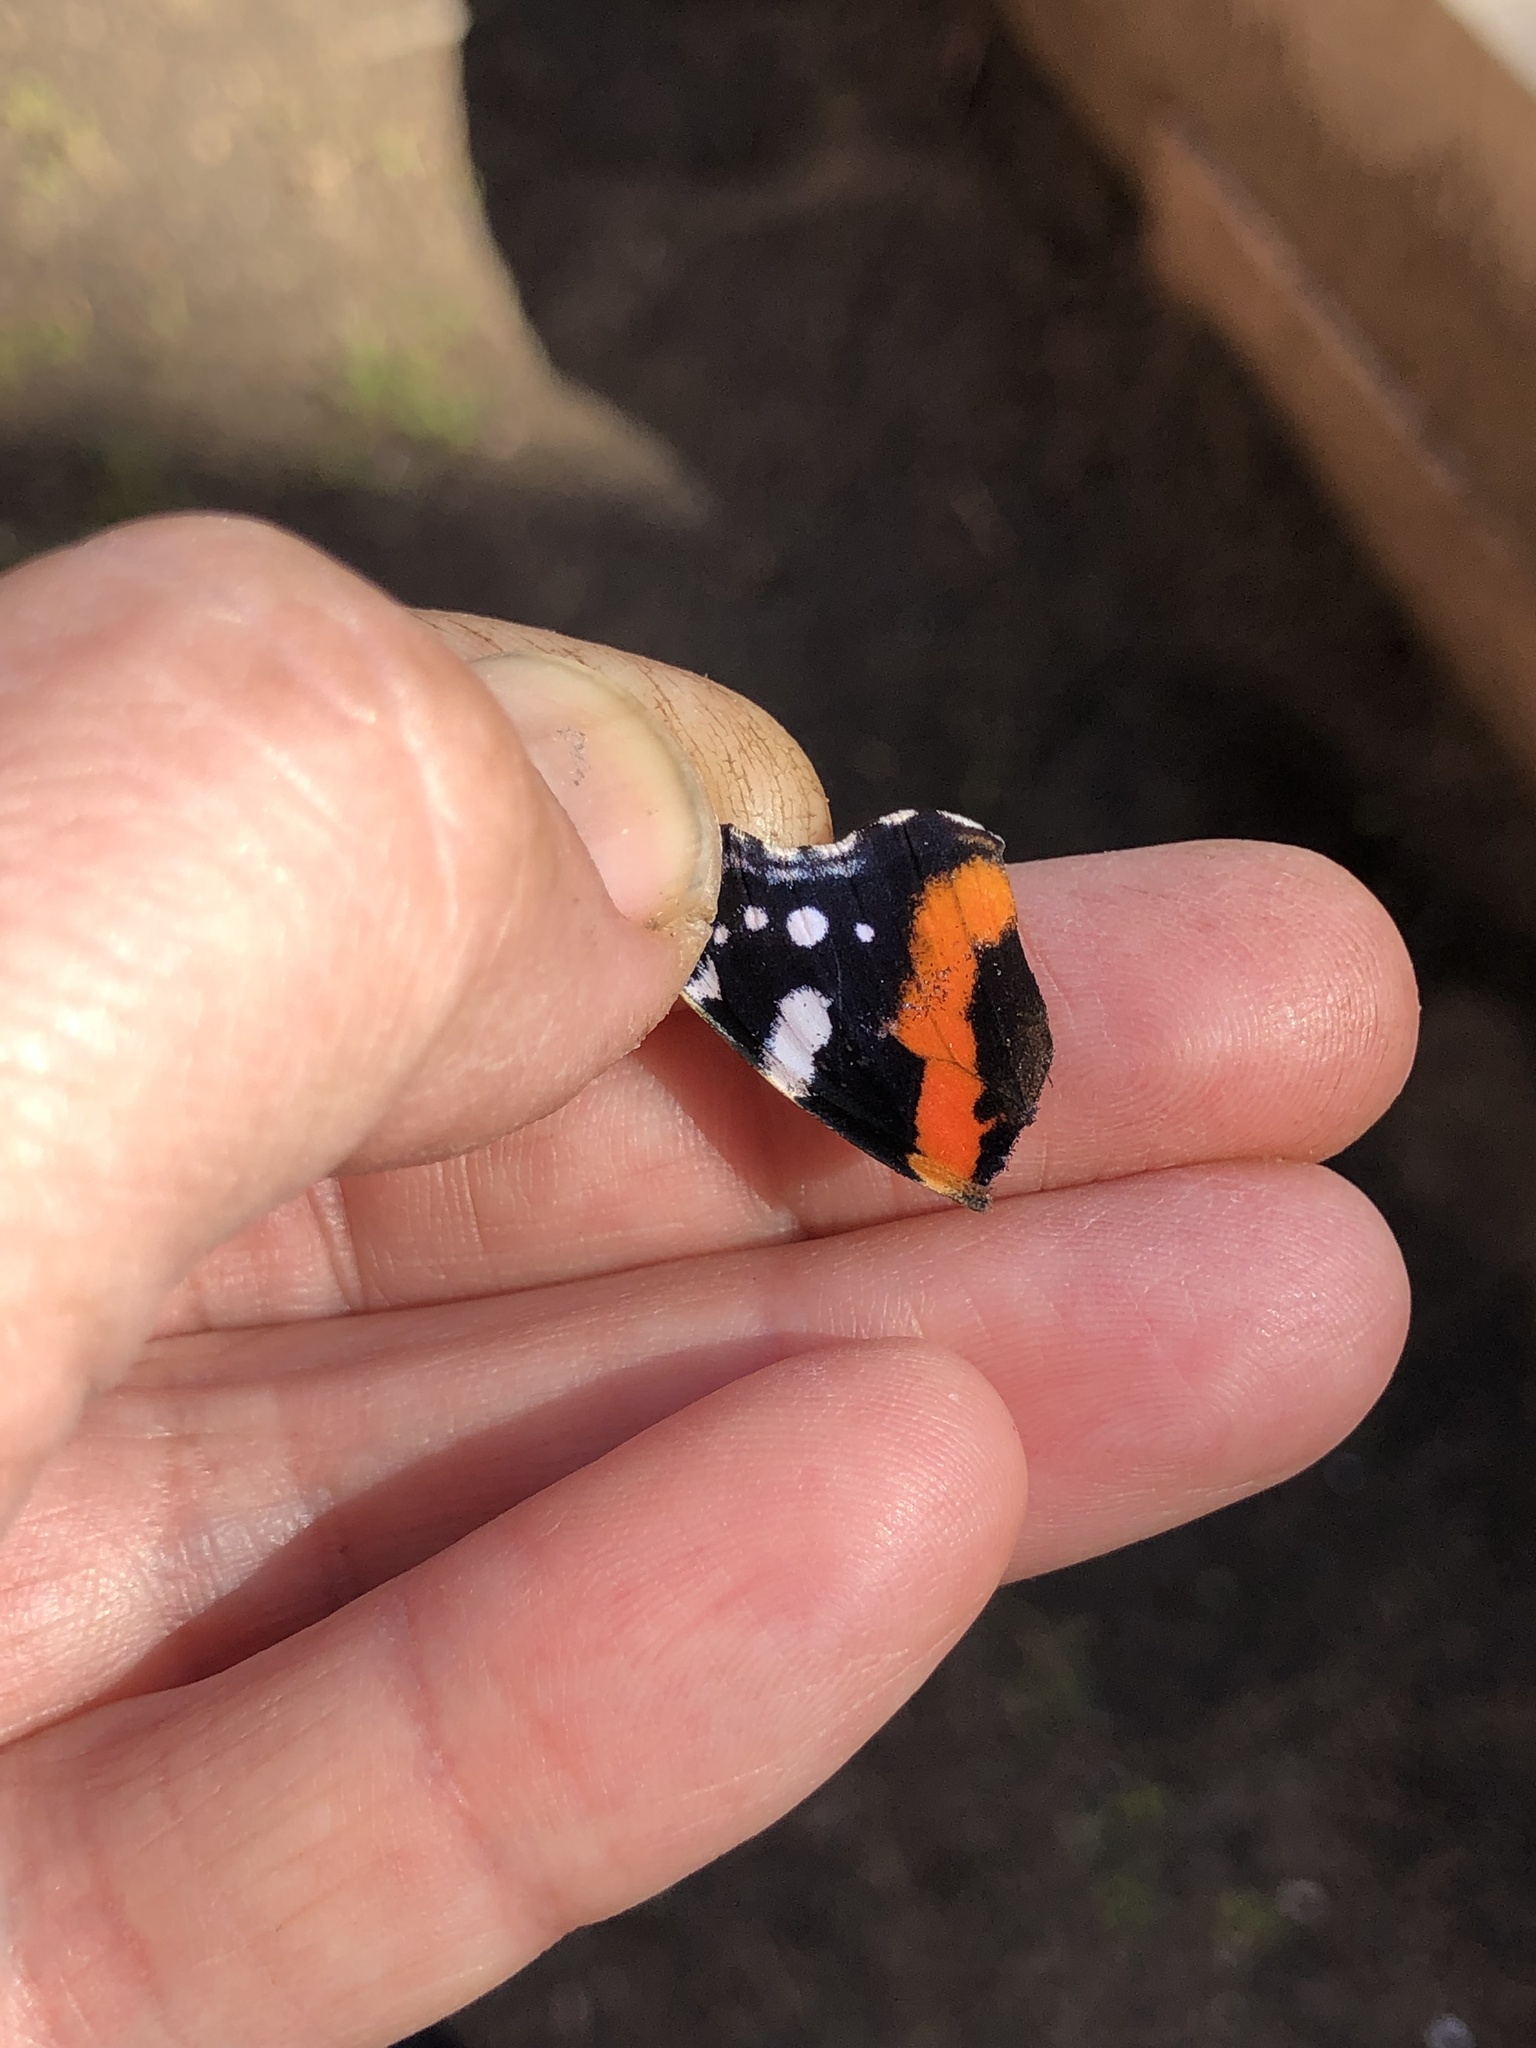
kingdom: Animalia
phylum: Arthropoda
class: Insecta
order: Lepidoptera
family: Nymphalidae
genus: Vanessa
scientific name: Vanessa atalanta
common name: Red admiral
